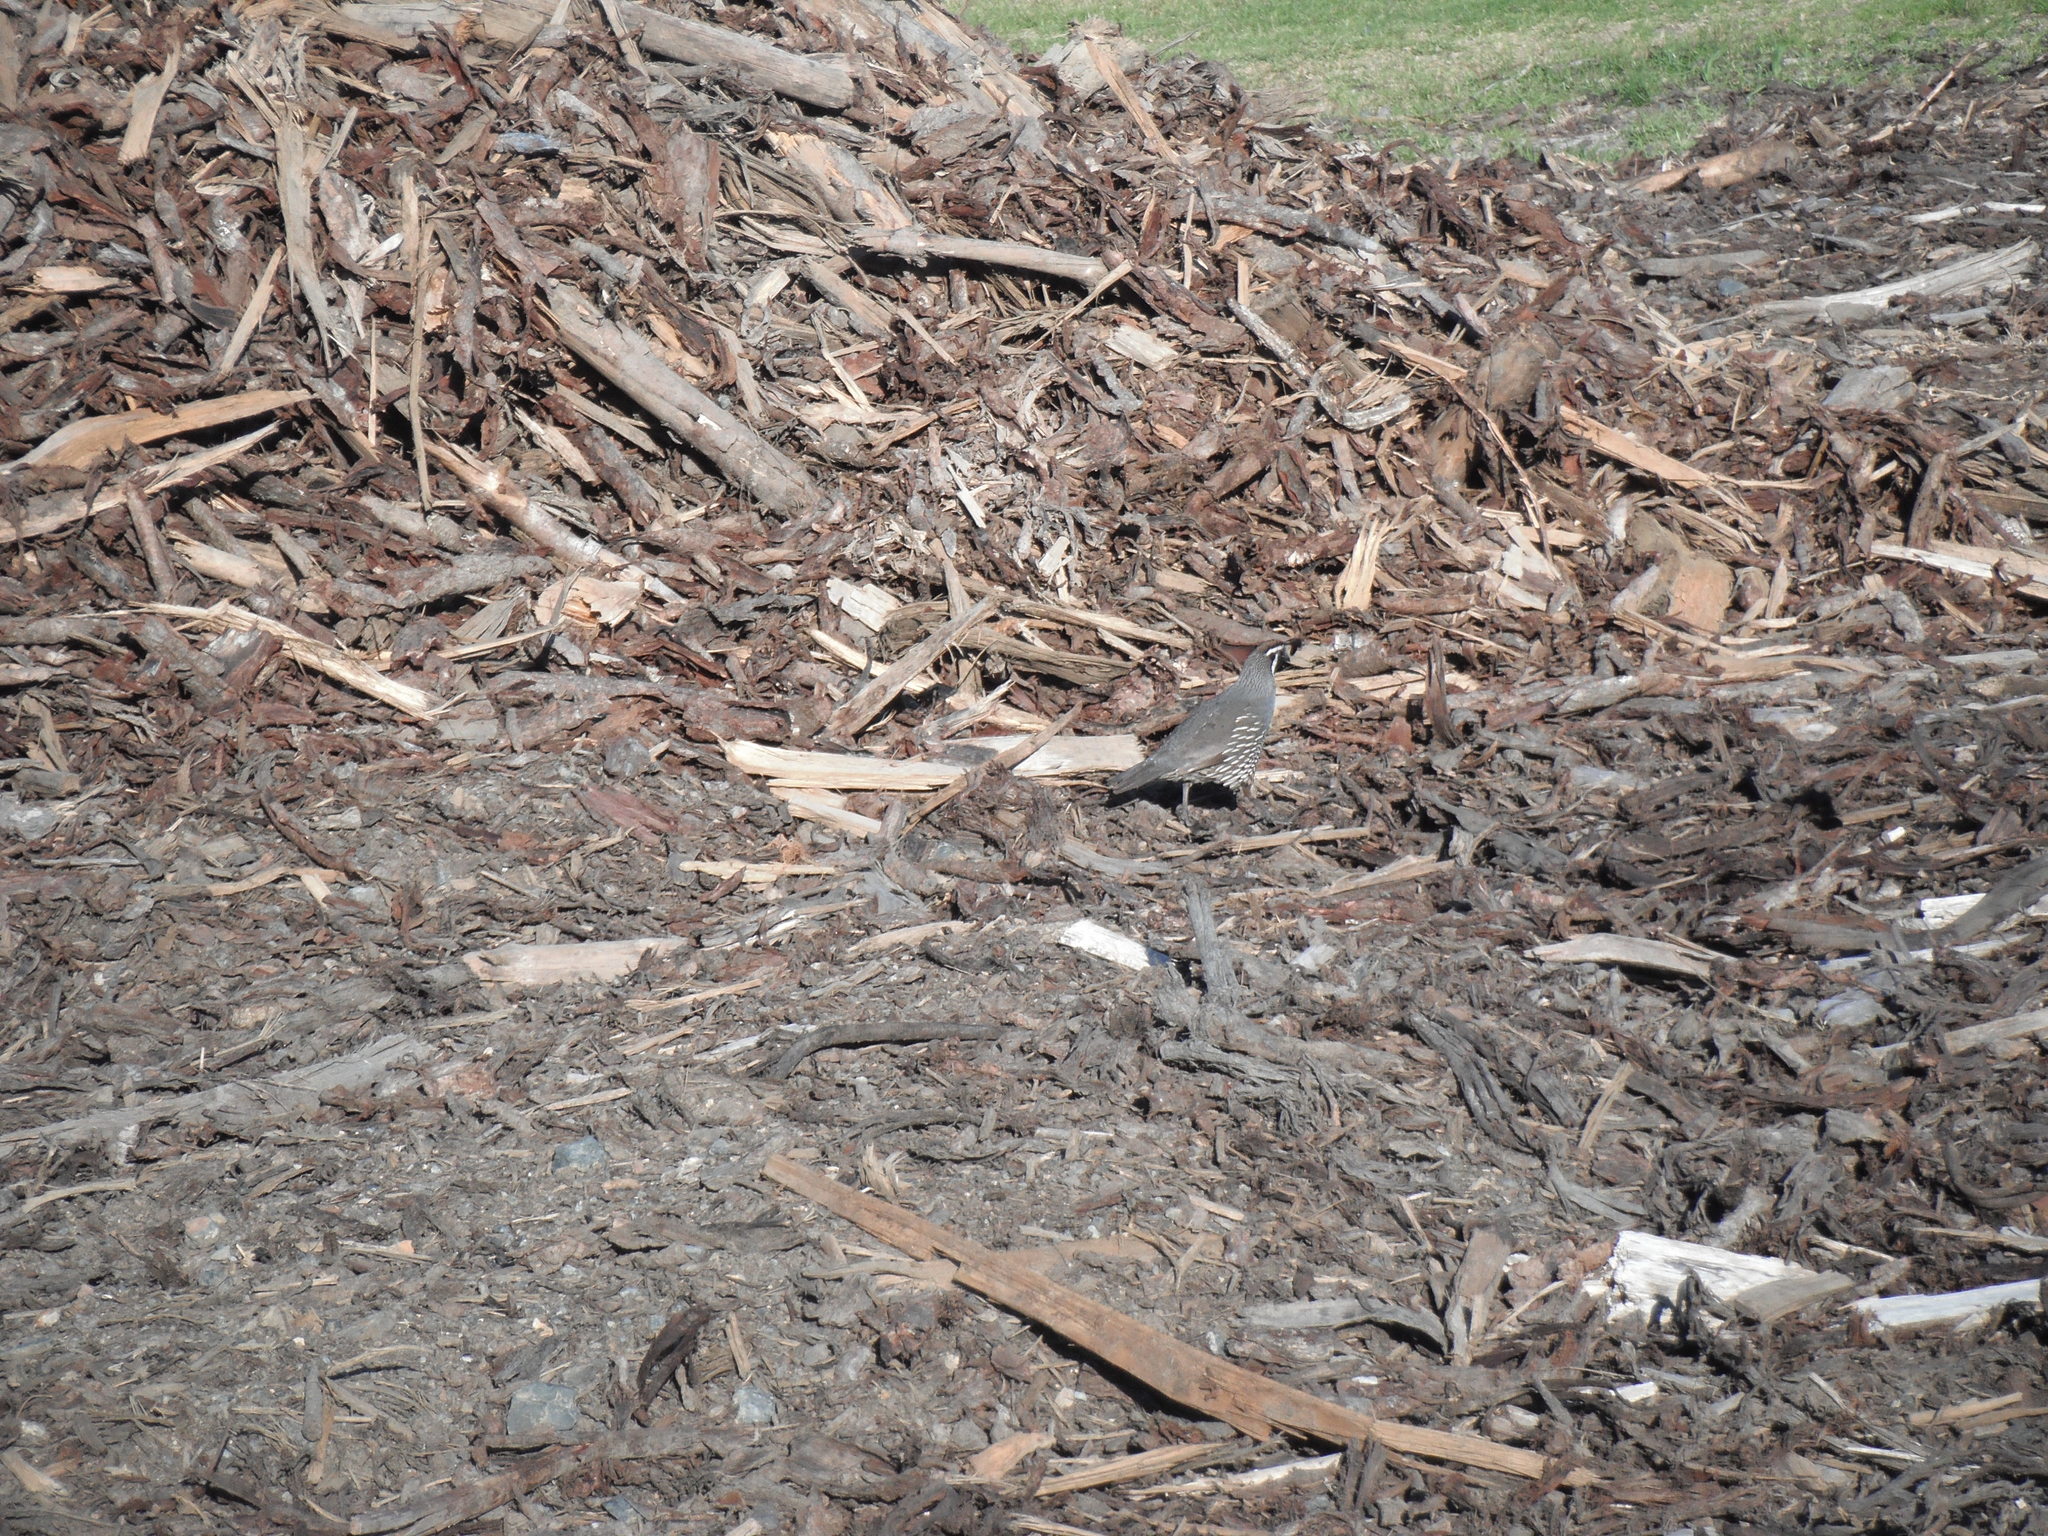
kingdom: Animalia
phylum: Chordata
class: Aves
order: Galliformes
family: Odontophoridae
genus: Callipepla
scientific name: Callipepla californica
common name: California quail
